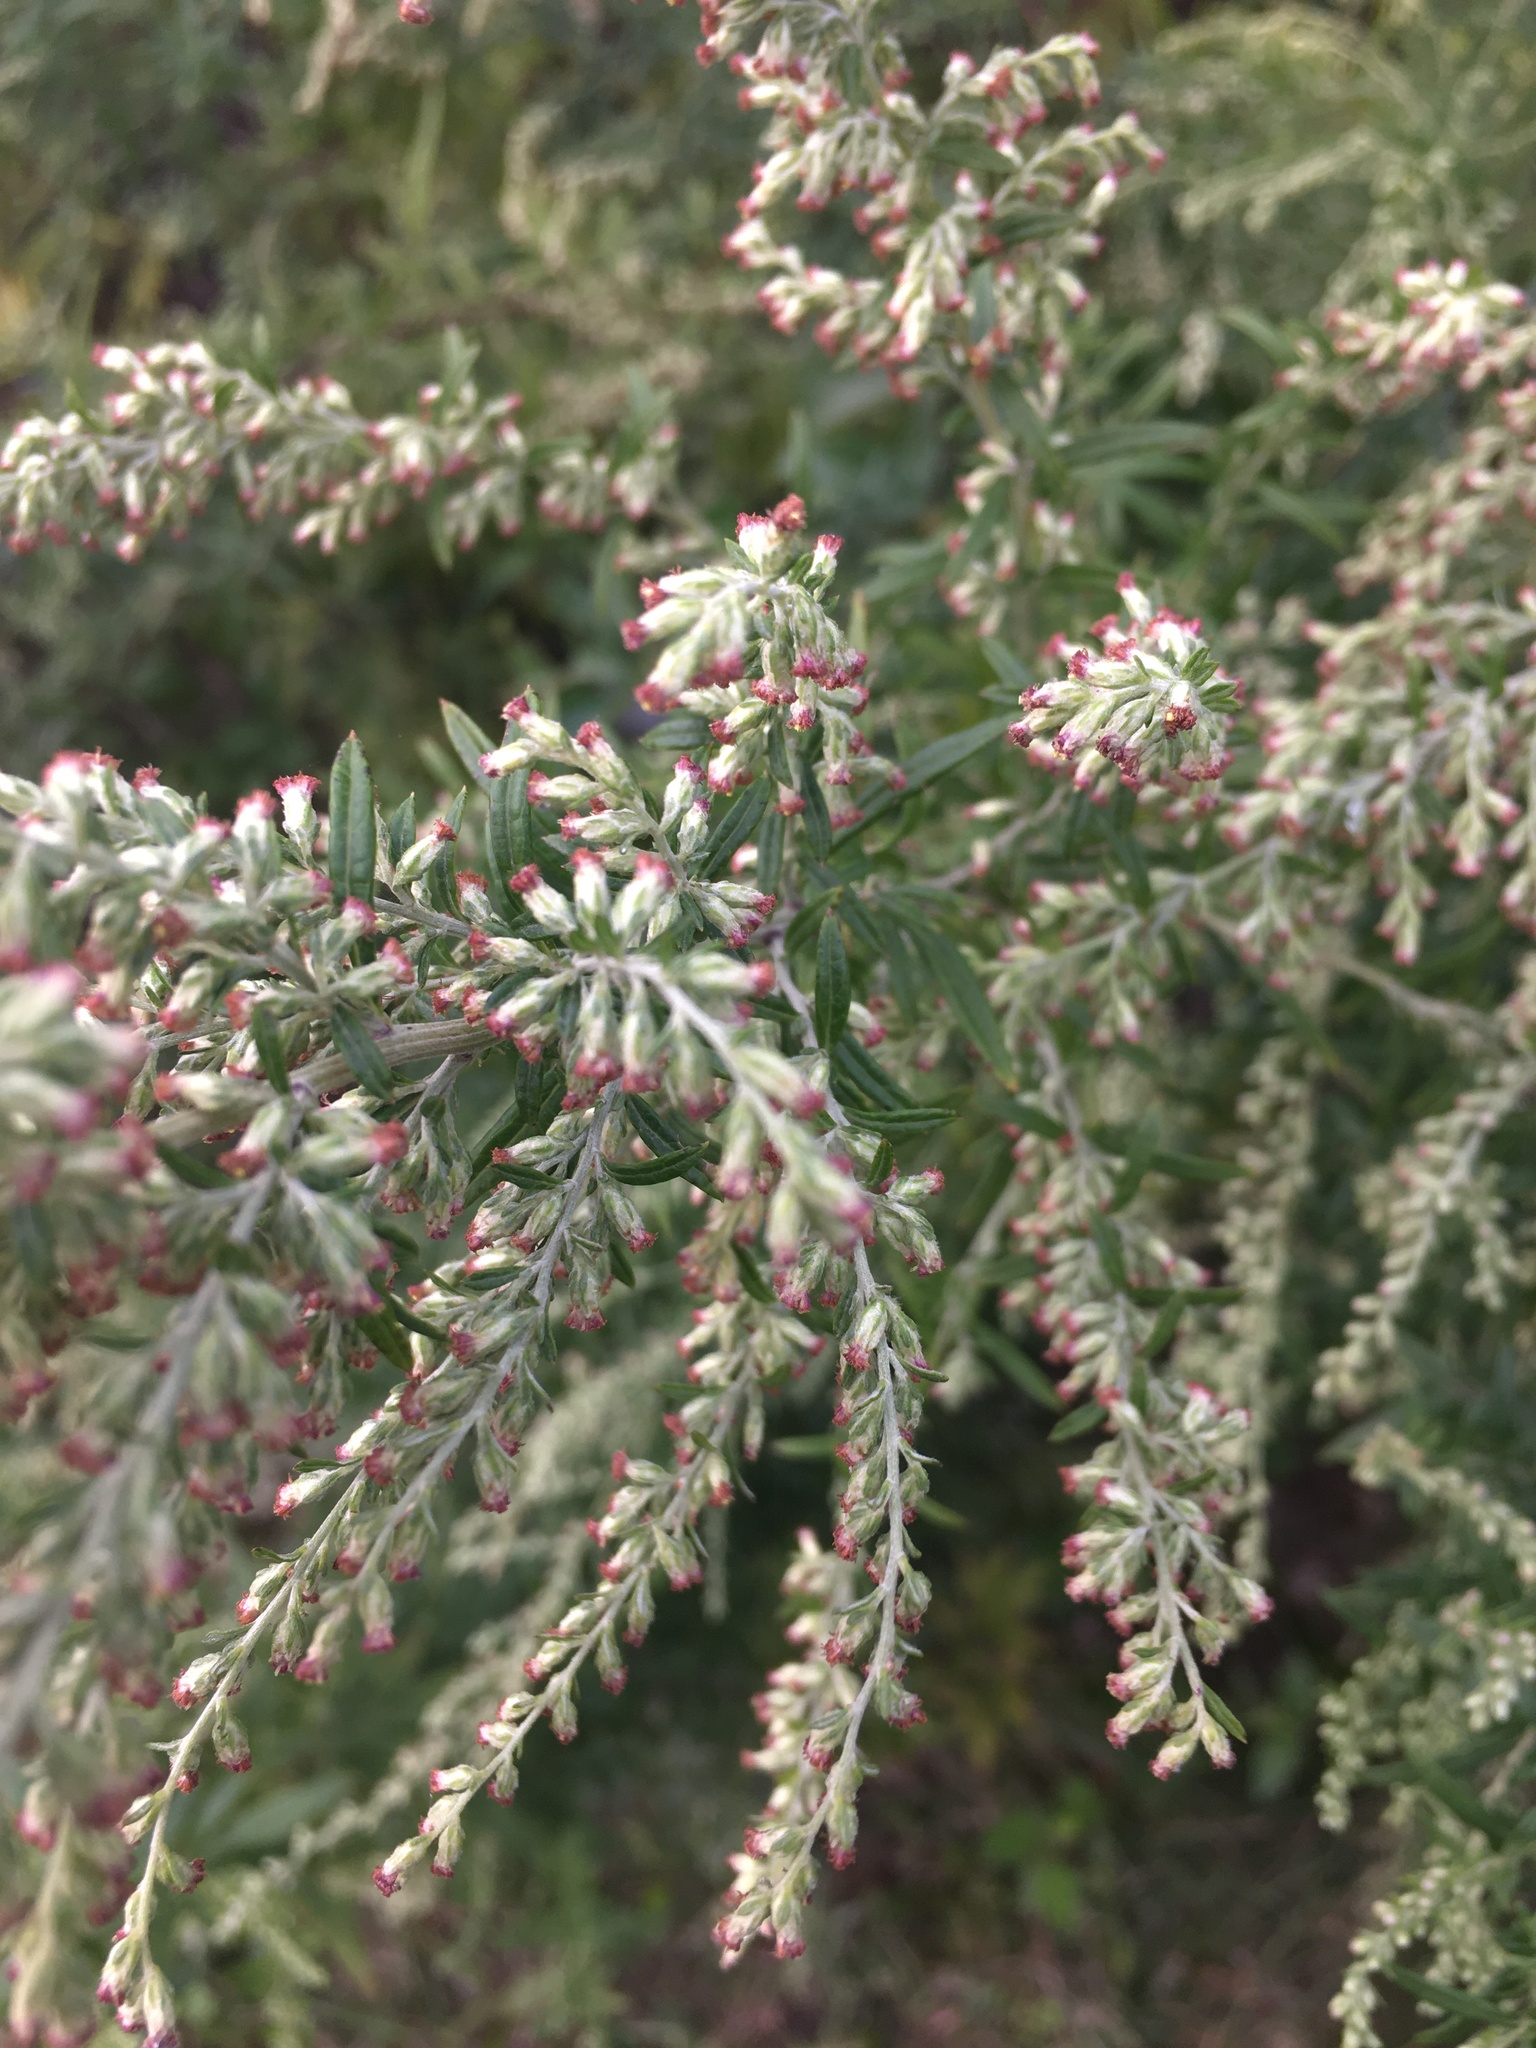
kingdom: Plantae
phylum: Tracheophyta
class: Magnoliopsida
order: Asterales
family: Asteraceae
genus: Artemisia
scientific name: Artemisia vulgaris
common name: Mugwort
